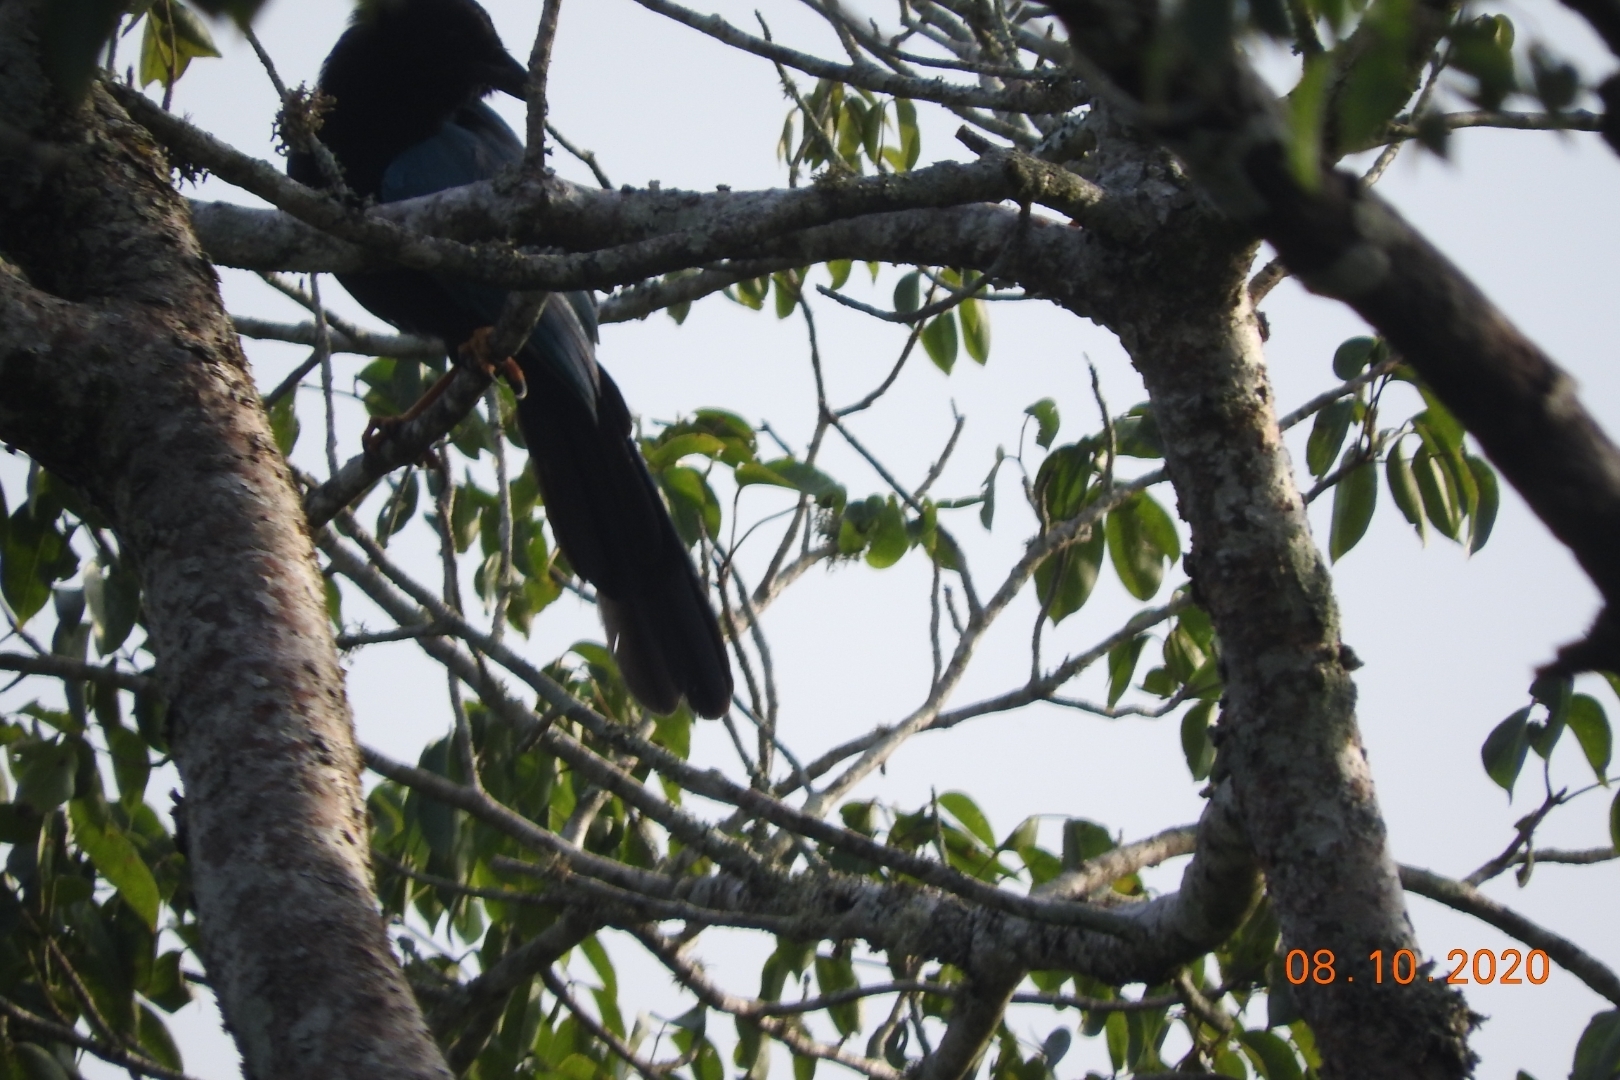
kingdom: Animalia
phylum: Chordata
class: Aves
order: Passeriformes
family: Corvidae
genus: Cyanocorax
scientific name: Cyanocorax yucatanicus
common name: Yucatan jay
